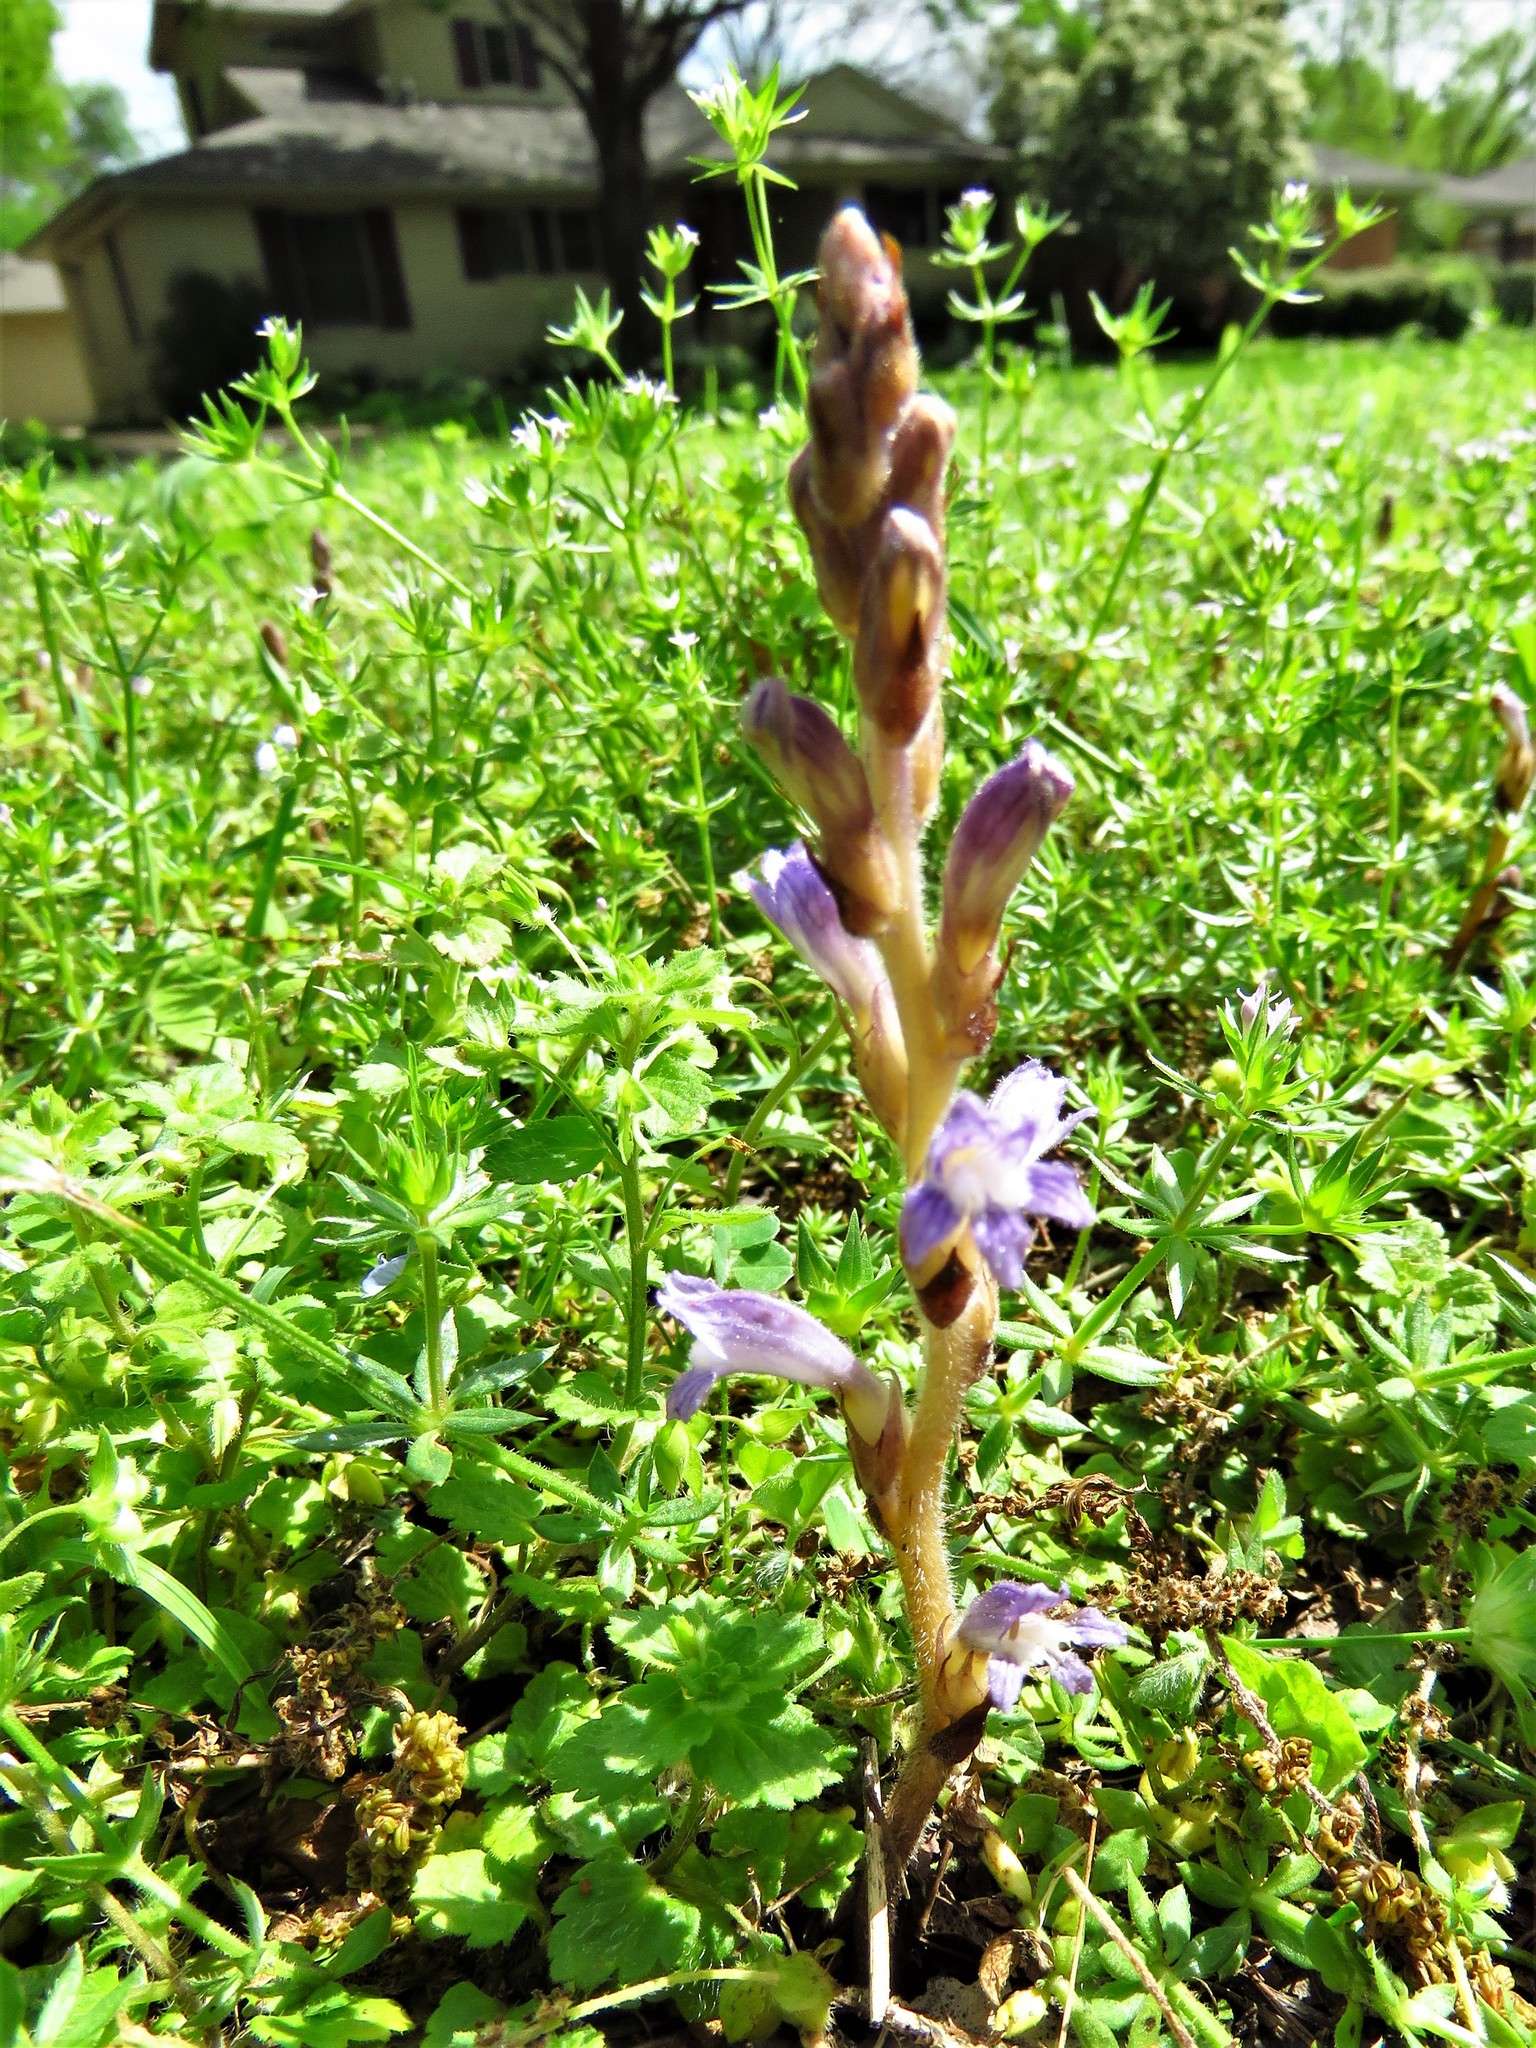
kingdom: Plantae
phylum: Tracheophyta
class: Magnoliopsida
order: Lamiales
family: Orobanchaceae
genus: Phelipanche
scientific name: Phelipanche mutelii
